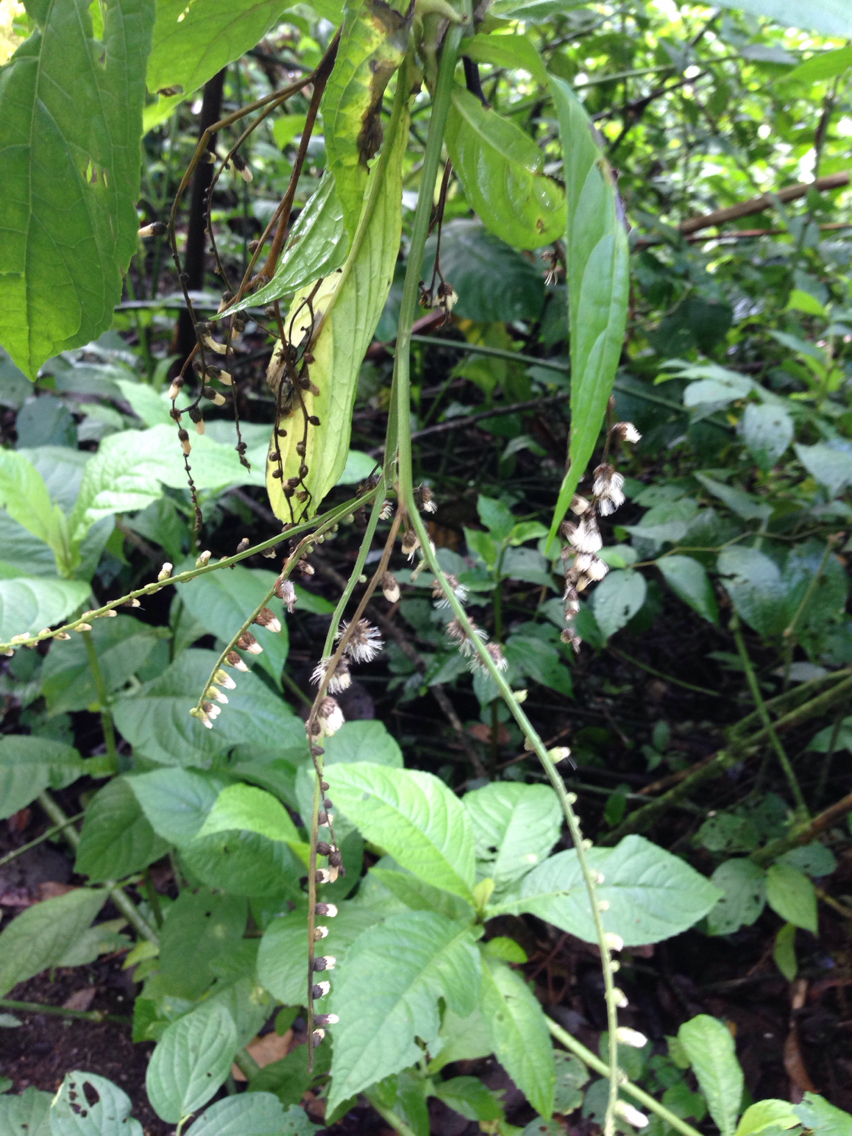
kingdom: Plantae
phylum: Tracheophyta
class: Magnoliopsida
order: Asterales
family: Asteraceae
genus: Eirmocephala
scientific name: Eirmocephala brachiata
